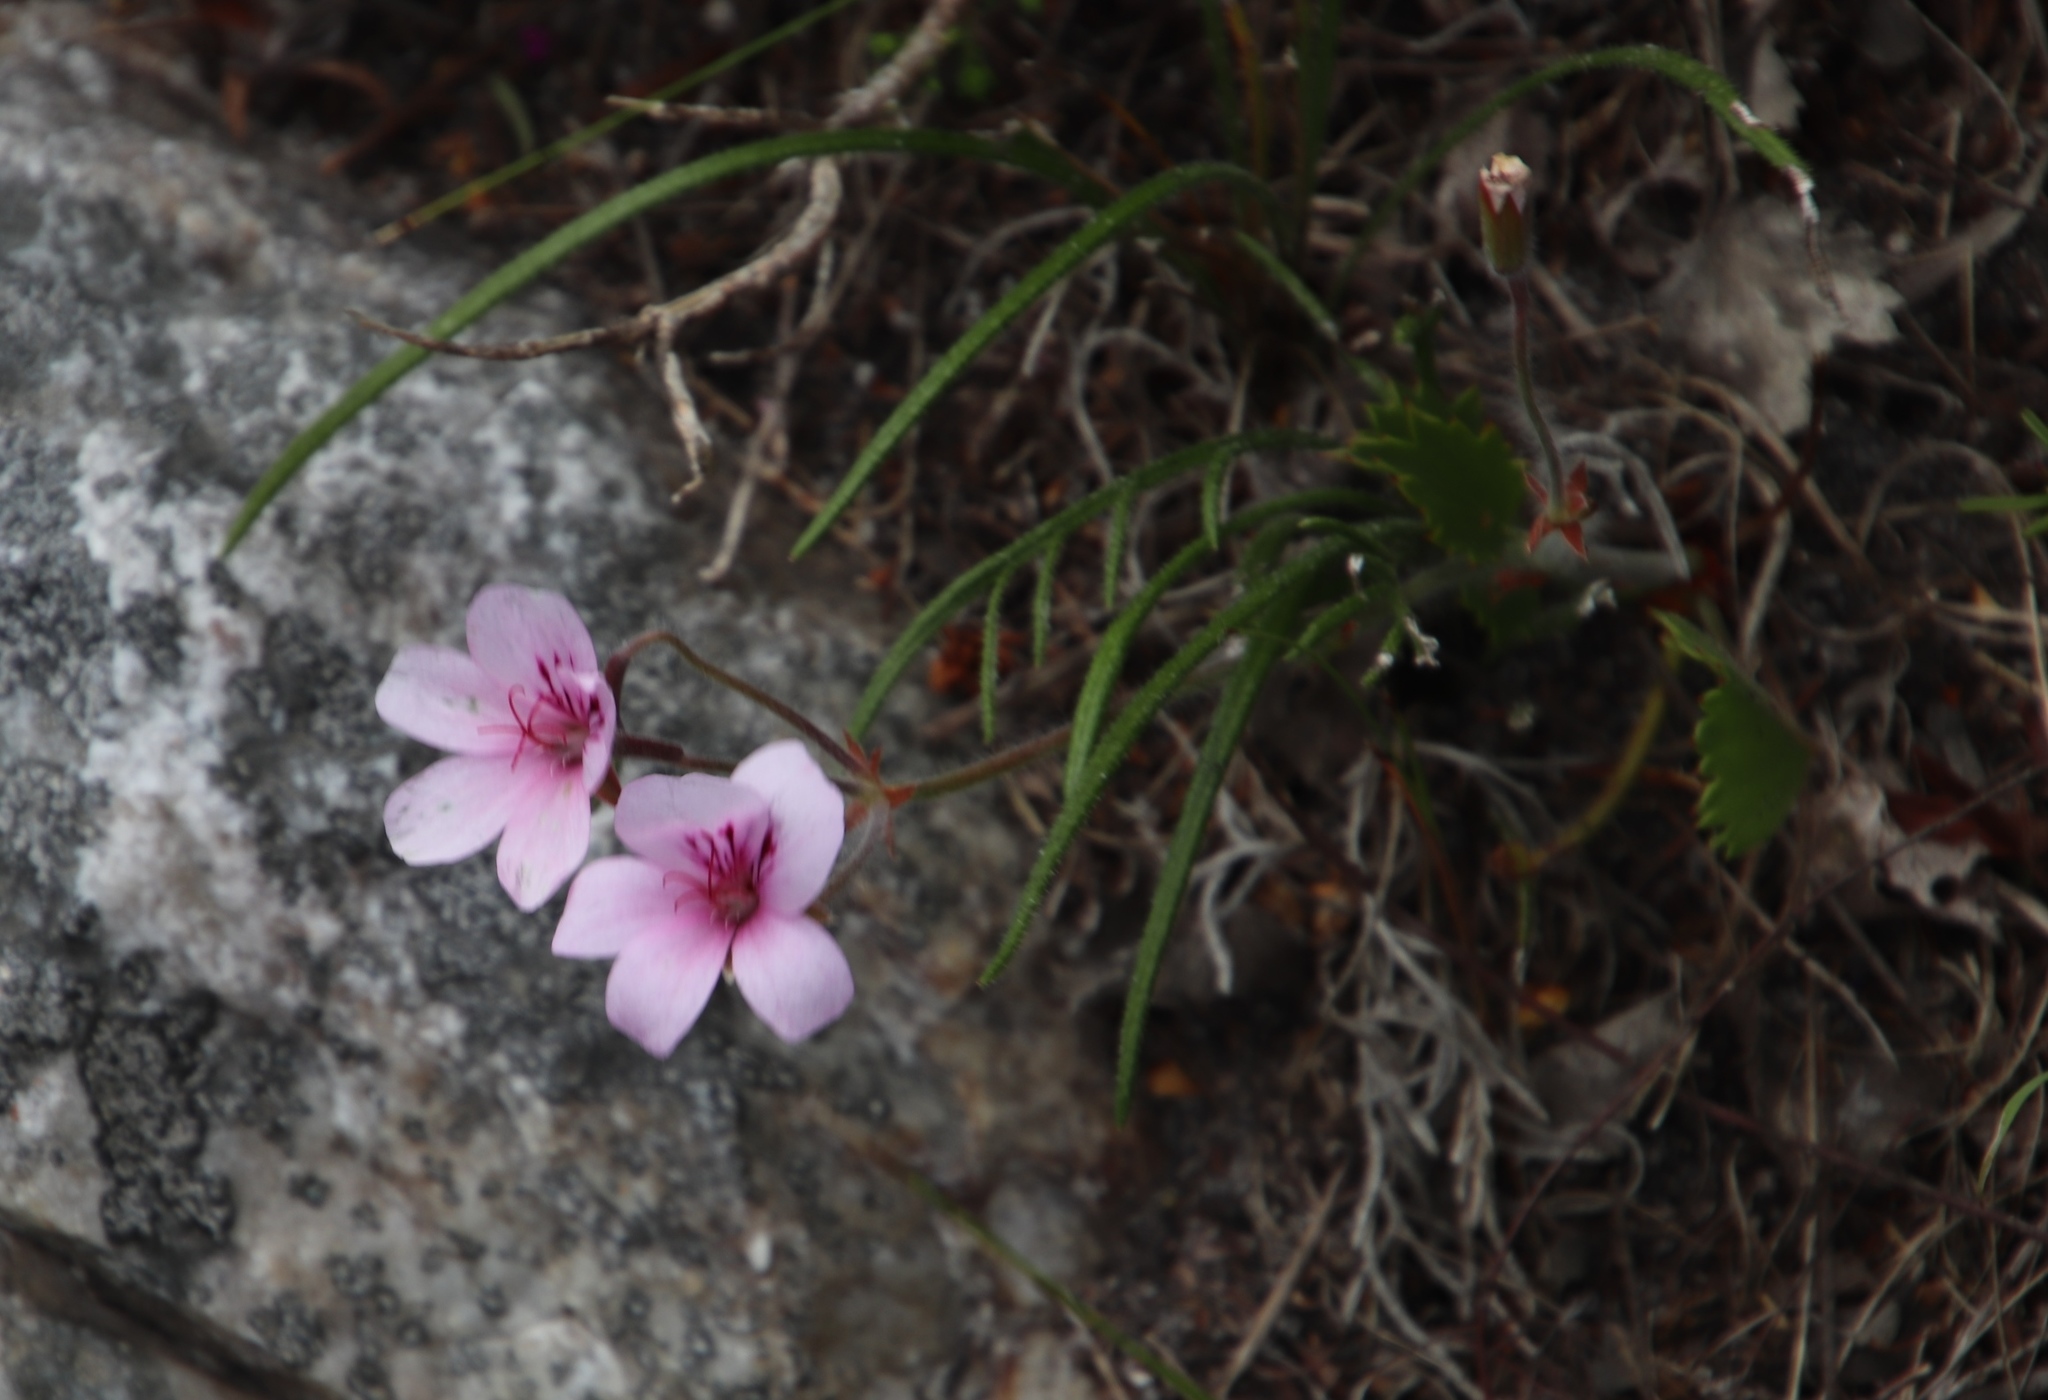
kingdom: Plantae
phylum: Tracheophyta
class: Magnoliopsida
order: Geraniales
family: Geraniaceae
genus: Pelargonium
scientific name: Pelargonium elegans
